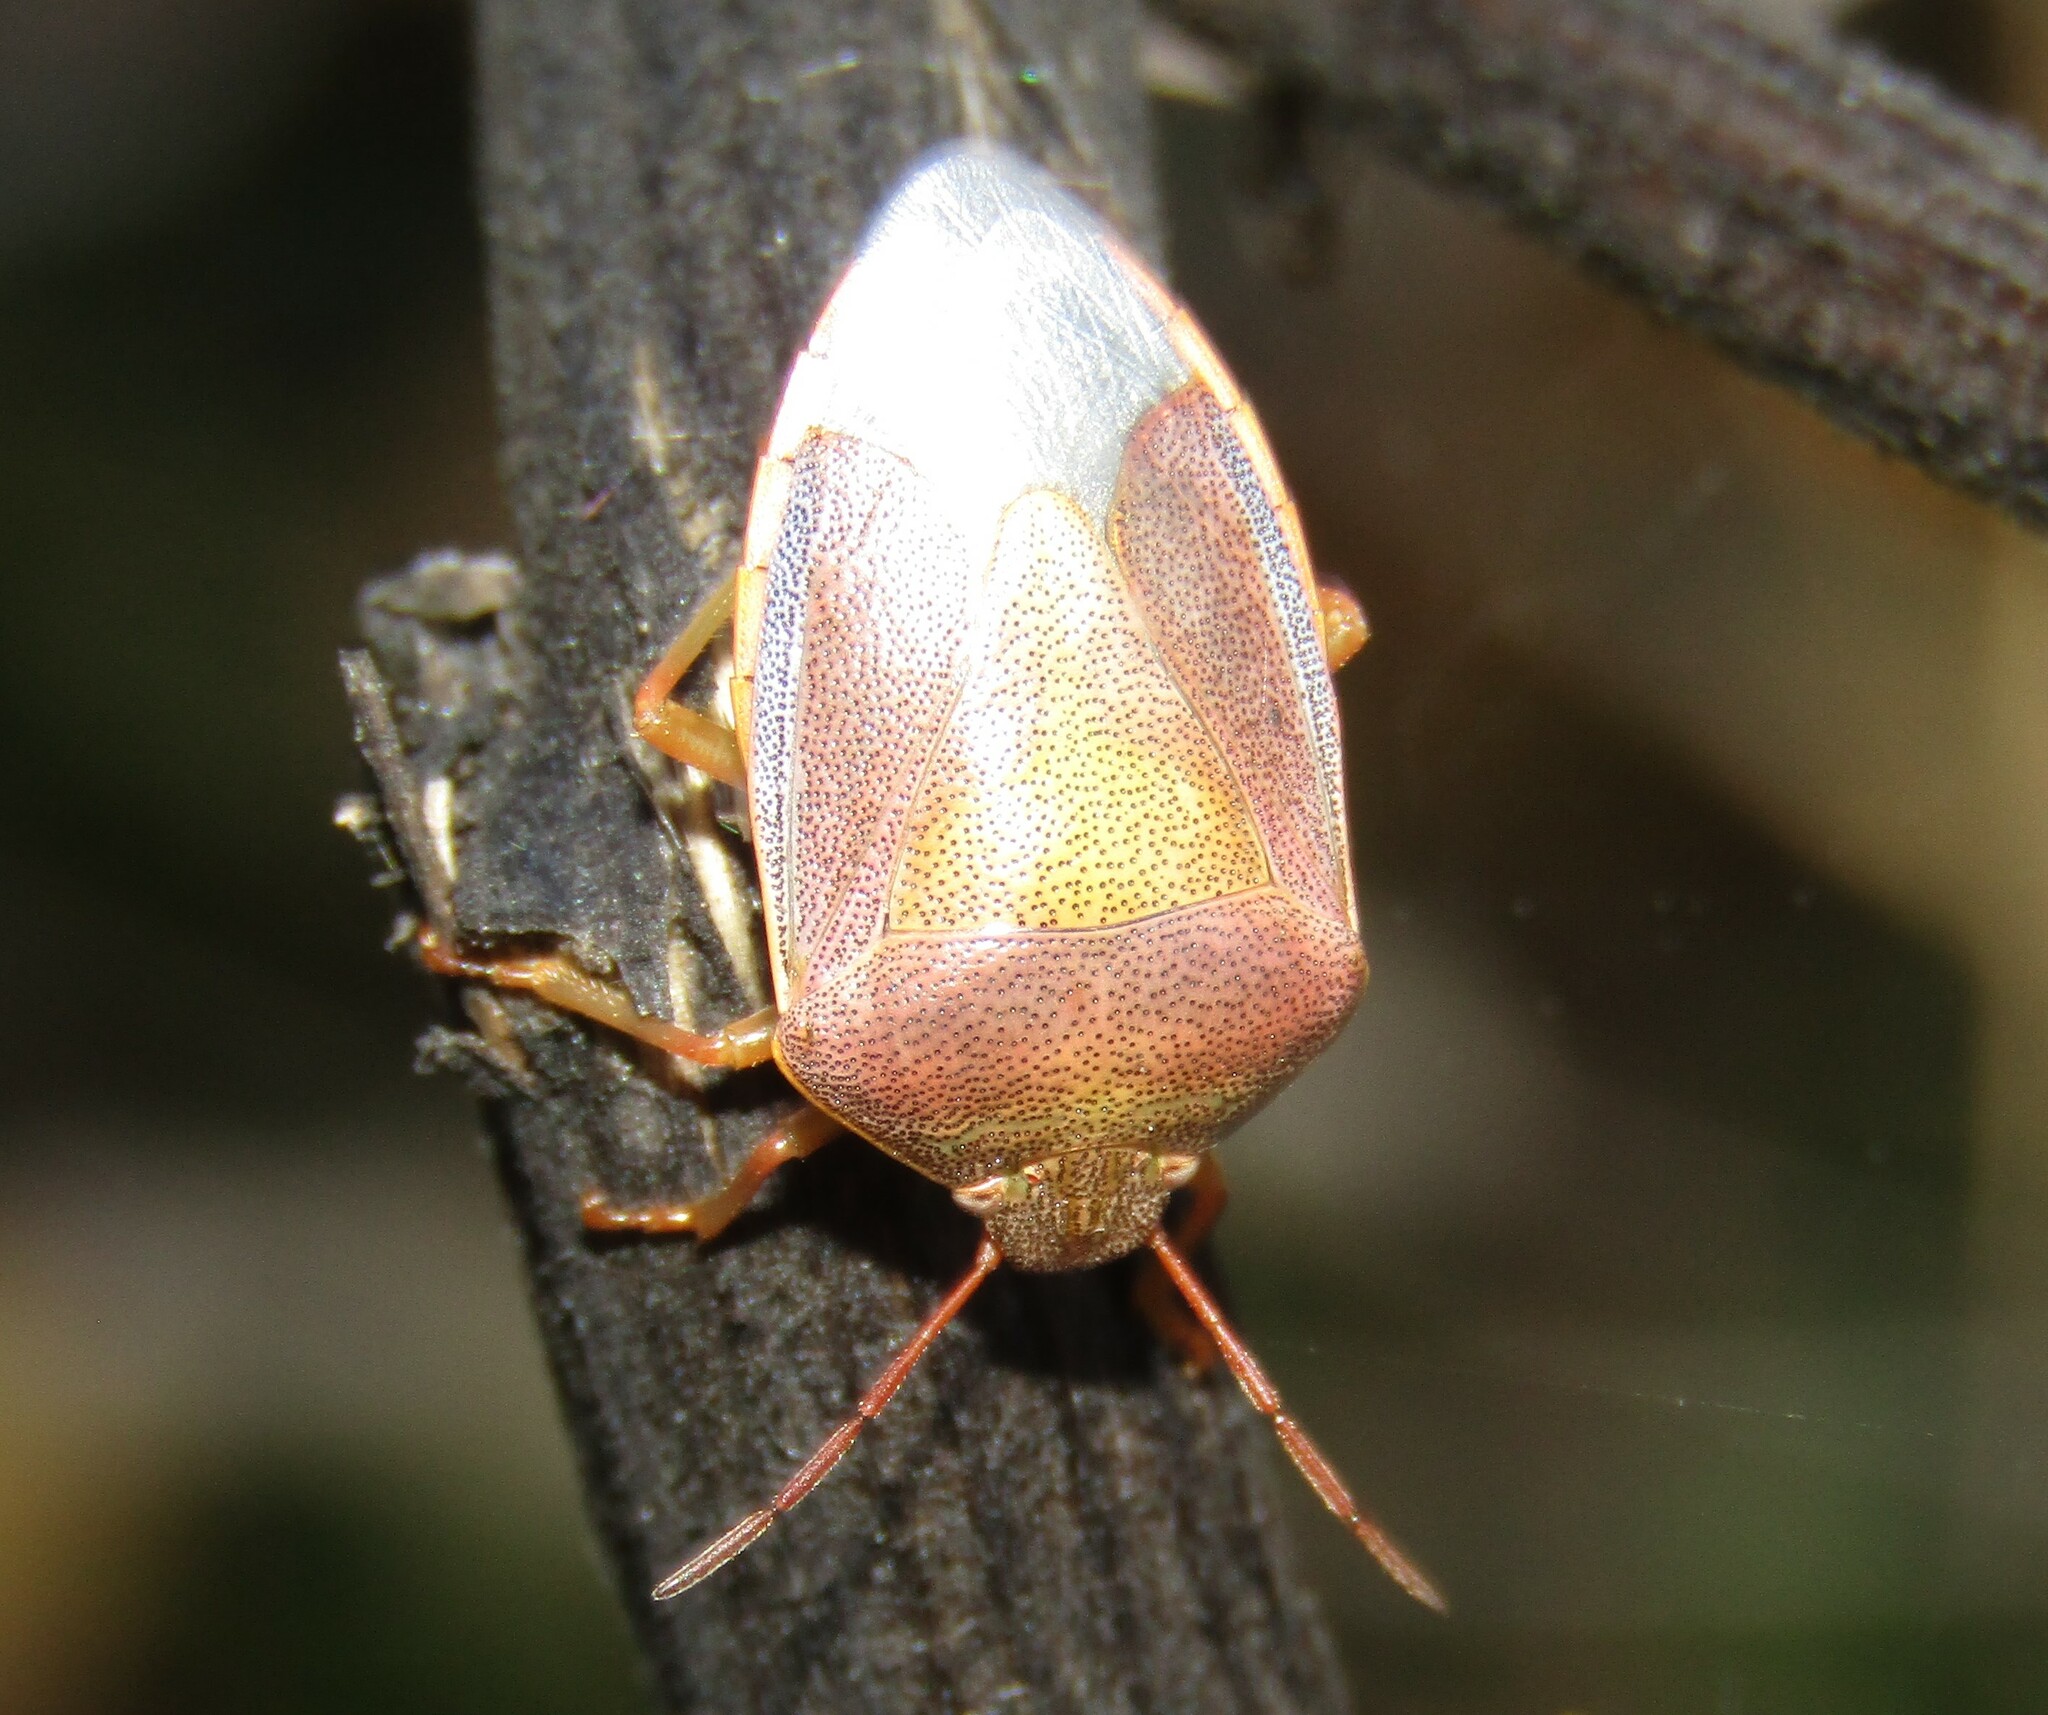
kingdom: Animalia
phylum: Arthropoda
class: Insecta
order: Hemiptera
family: Pentatomidae
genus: Piezodorus
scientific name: Piezodorus lituratus
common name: Stink bug
